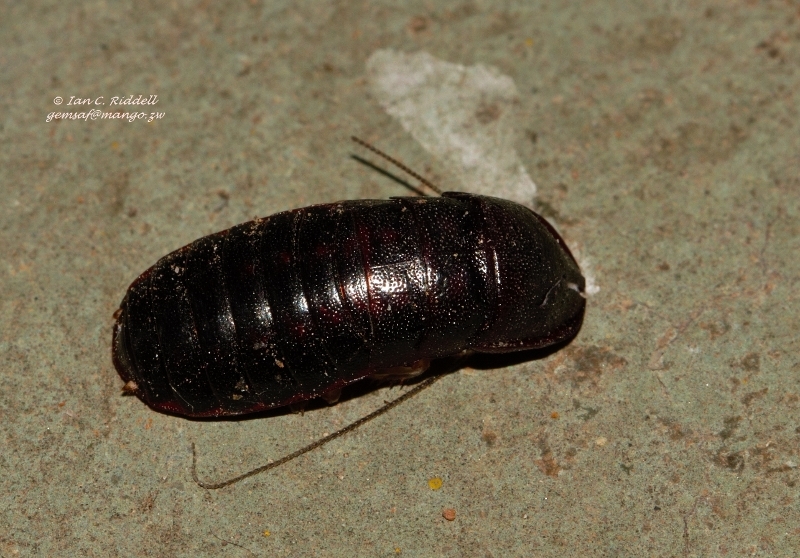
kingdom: Animalia
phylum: Arthropoda
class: Insecta
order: Blattodea
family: Blaberidae
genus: Bantua
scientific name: Bantua
